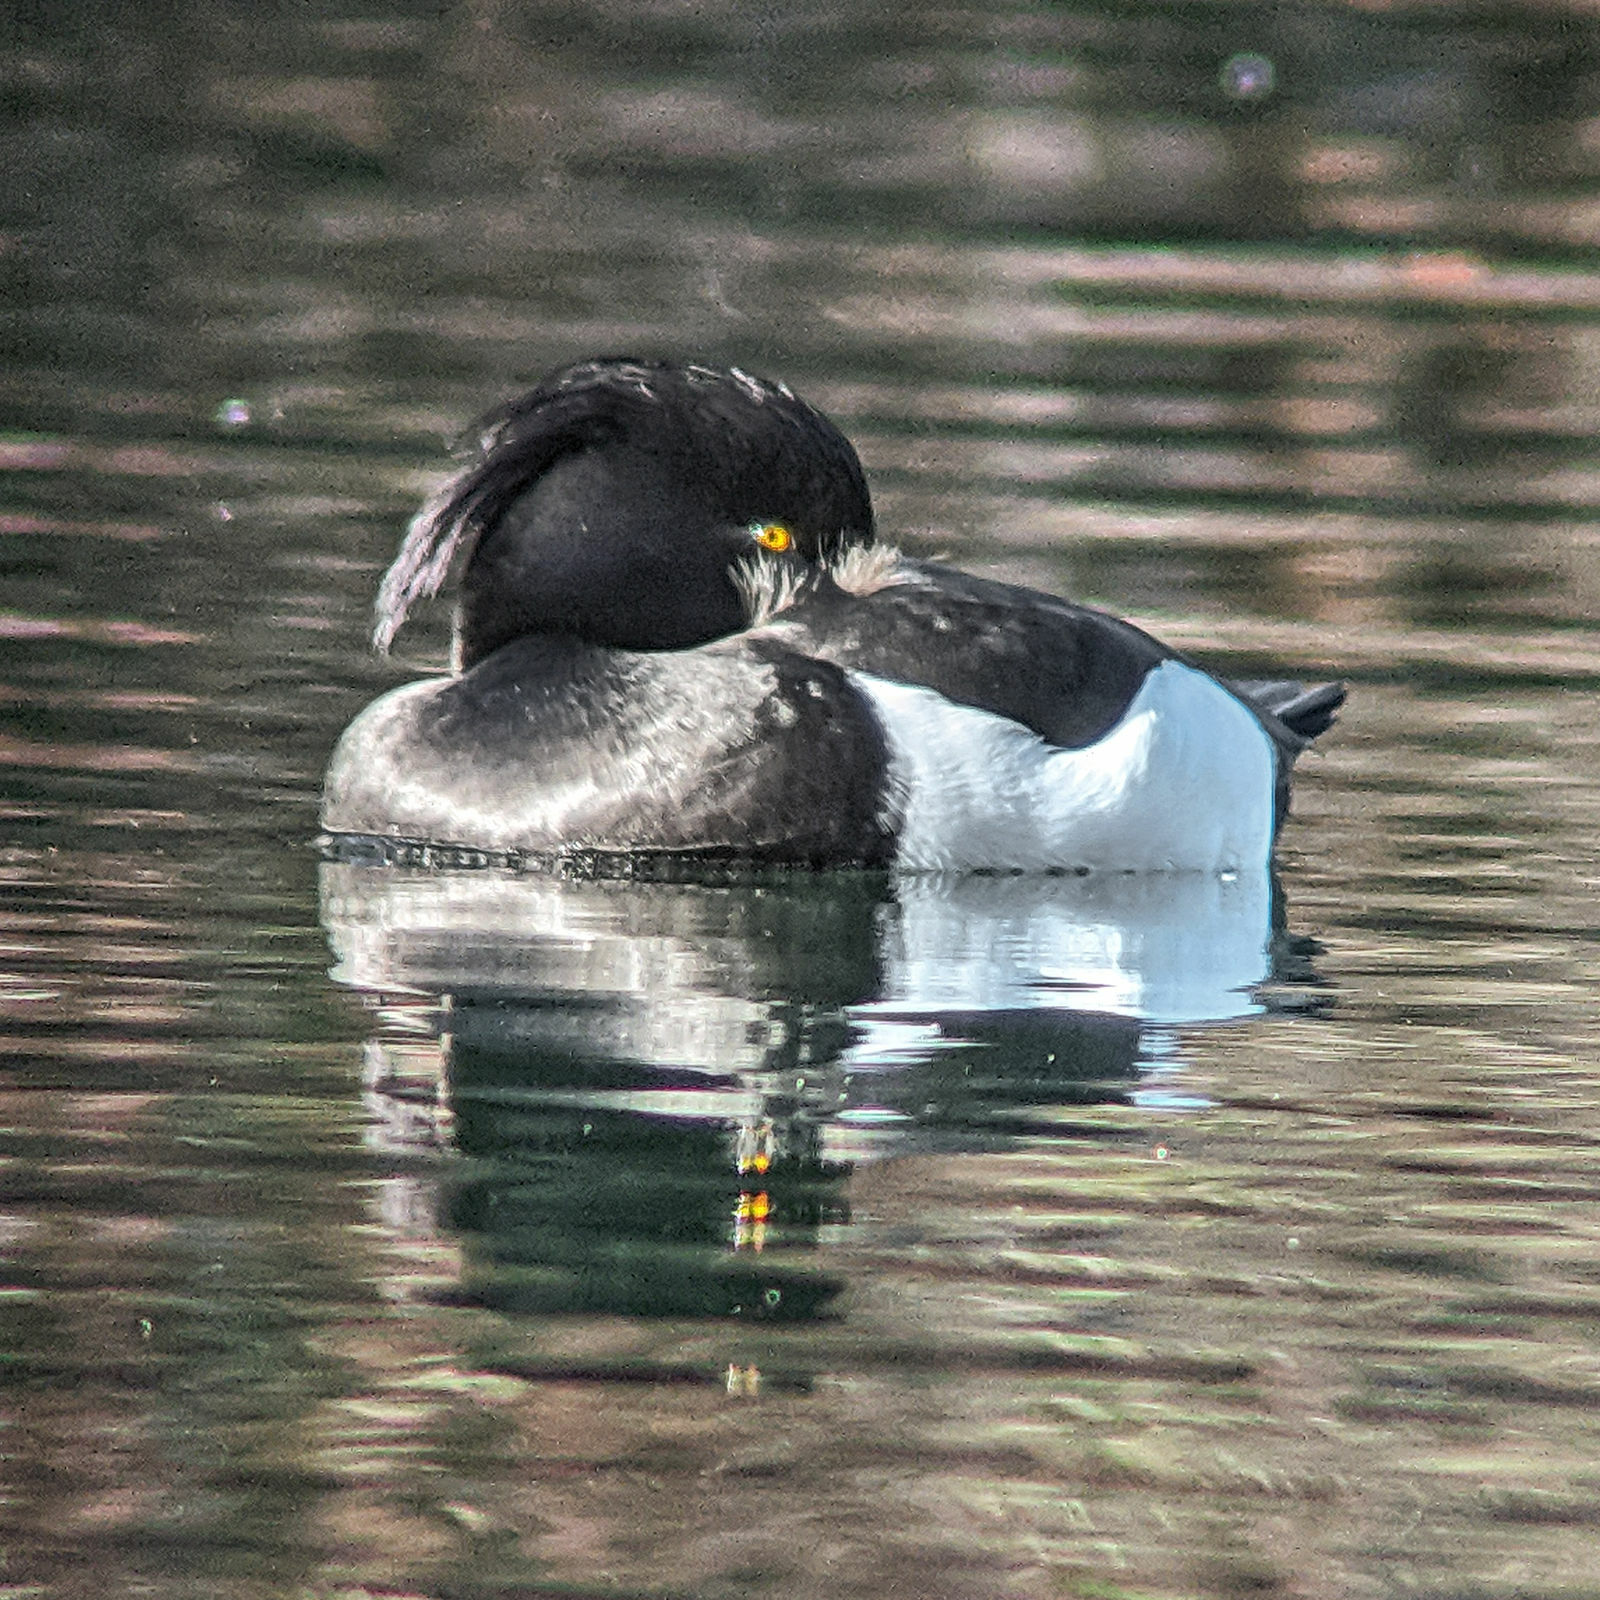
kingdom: Animalia
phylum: Chordata
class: Aves
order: Anseriformes
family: Anatidae
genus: Aythya
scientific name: Aythya fuligula
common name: Tufted duck
